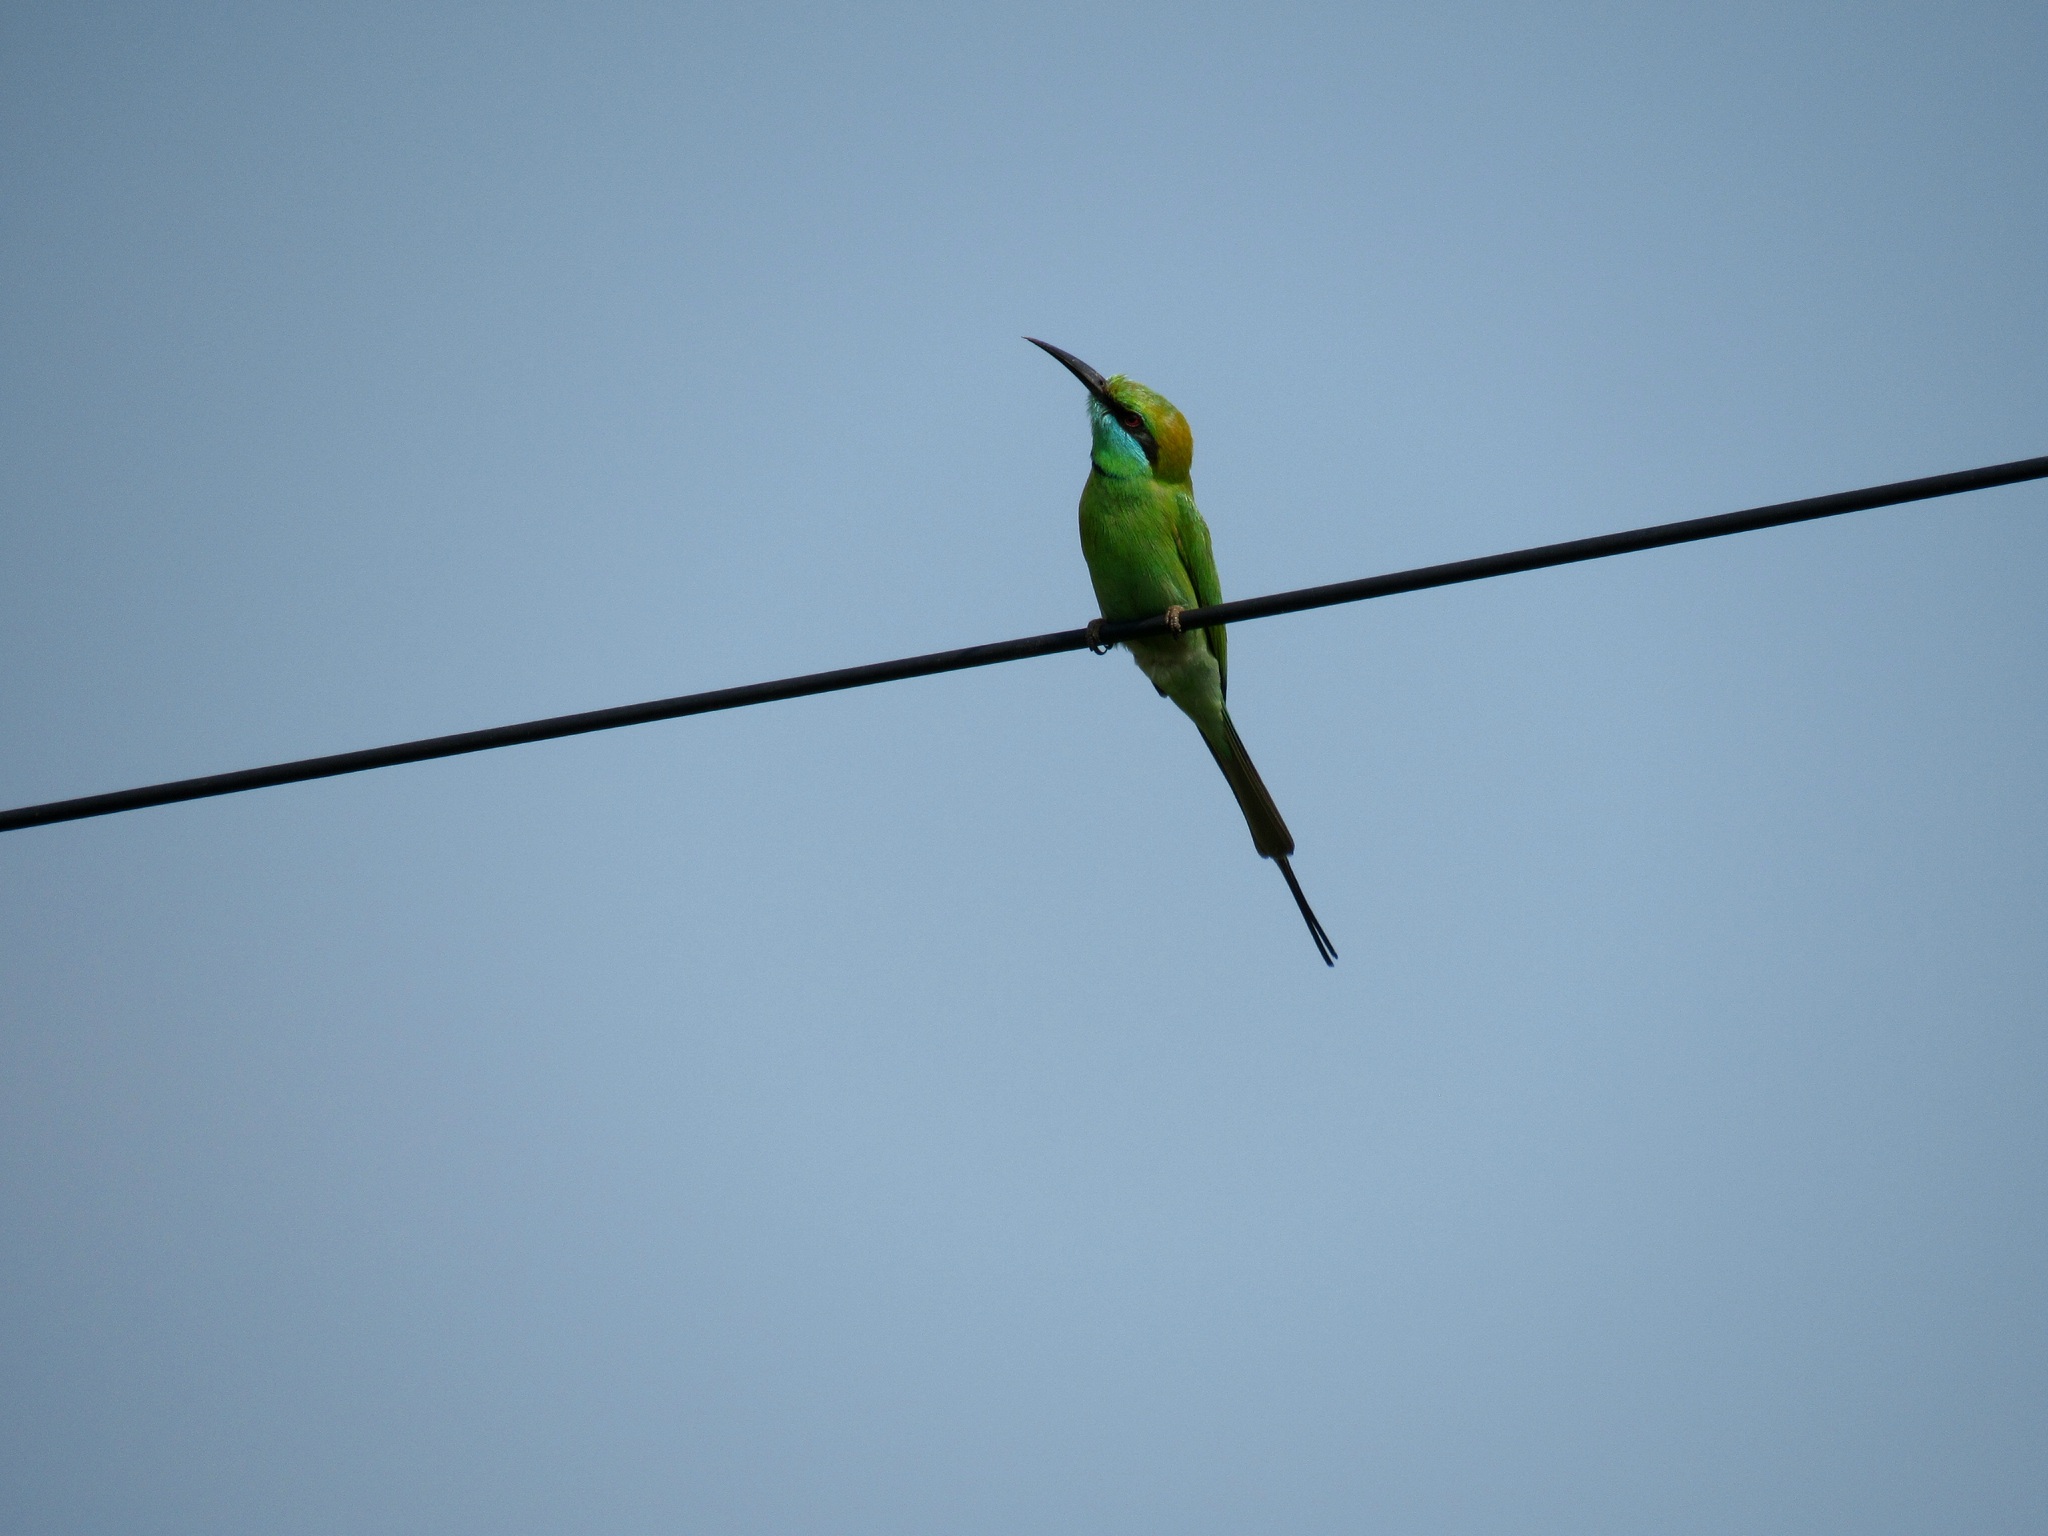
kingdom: Animalia
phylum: Chordata
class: Aves
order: Coraciiformes
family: Meropidae
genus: Merops
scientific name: Merops orientalis
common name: Green bee-eater
